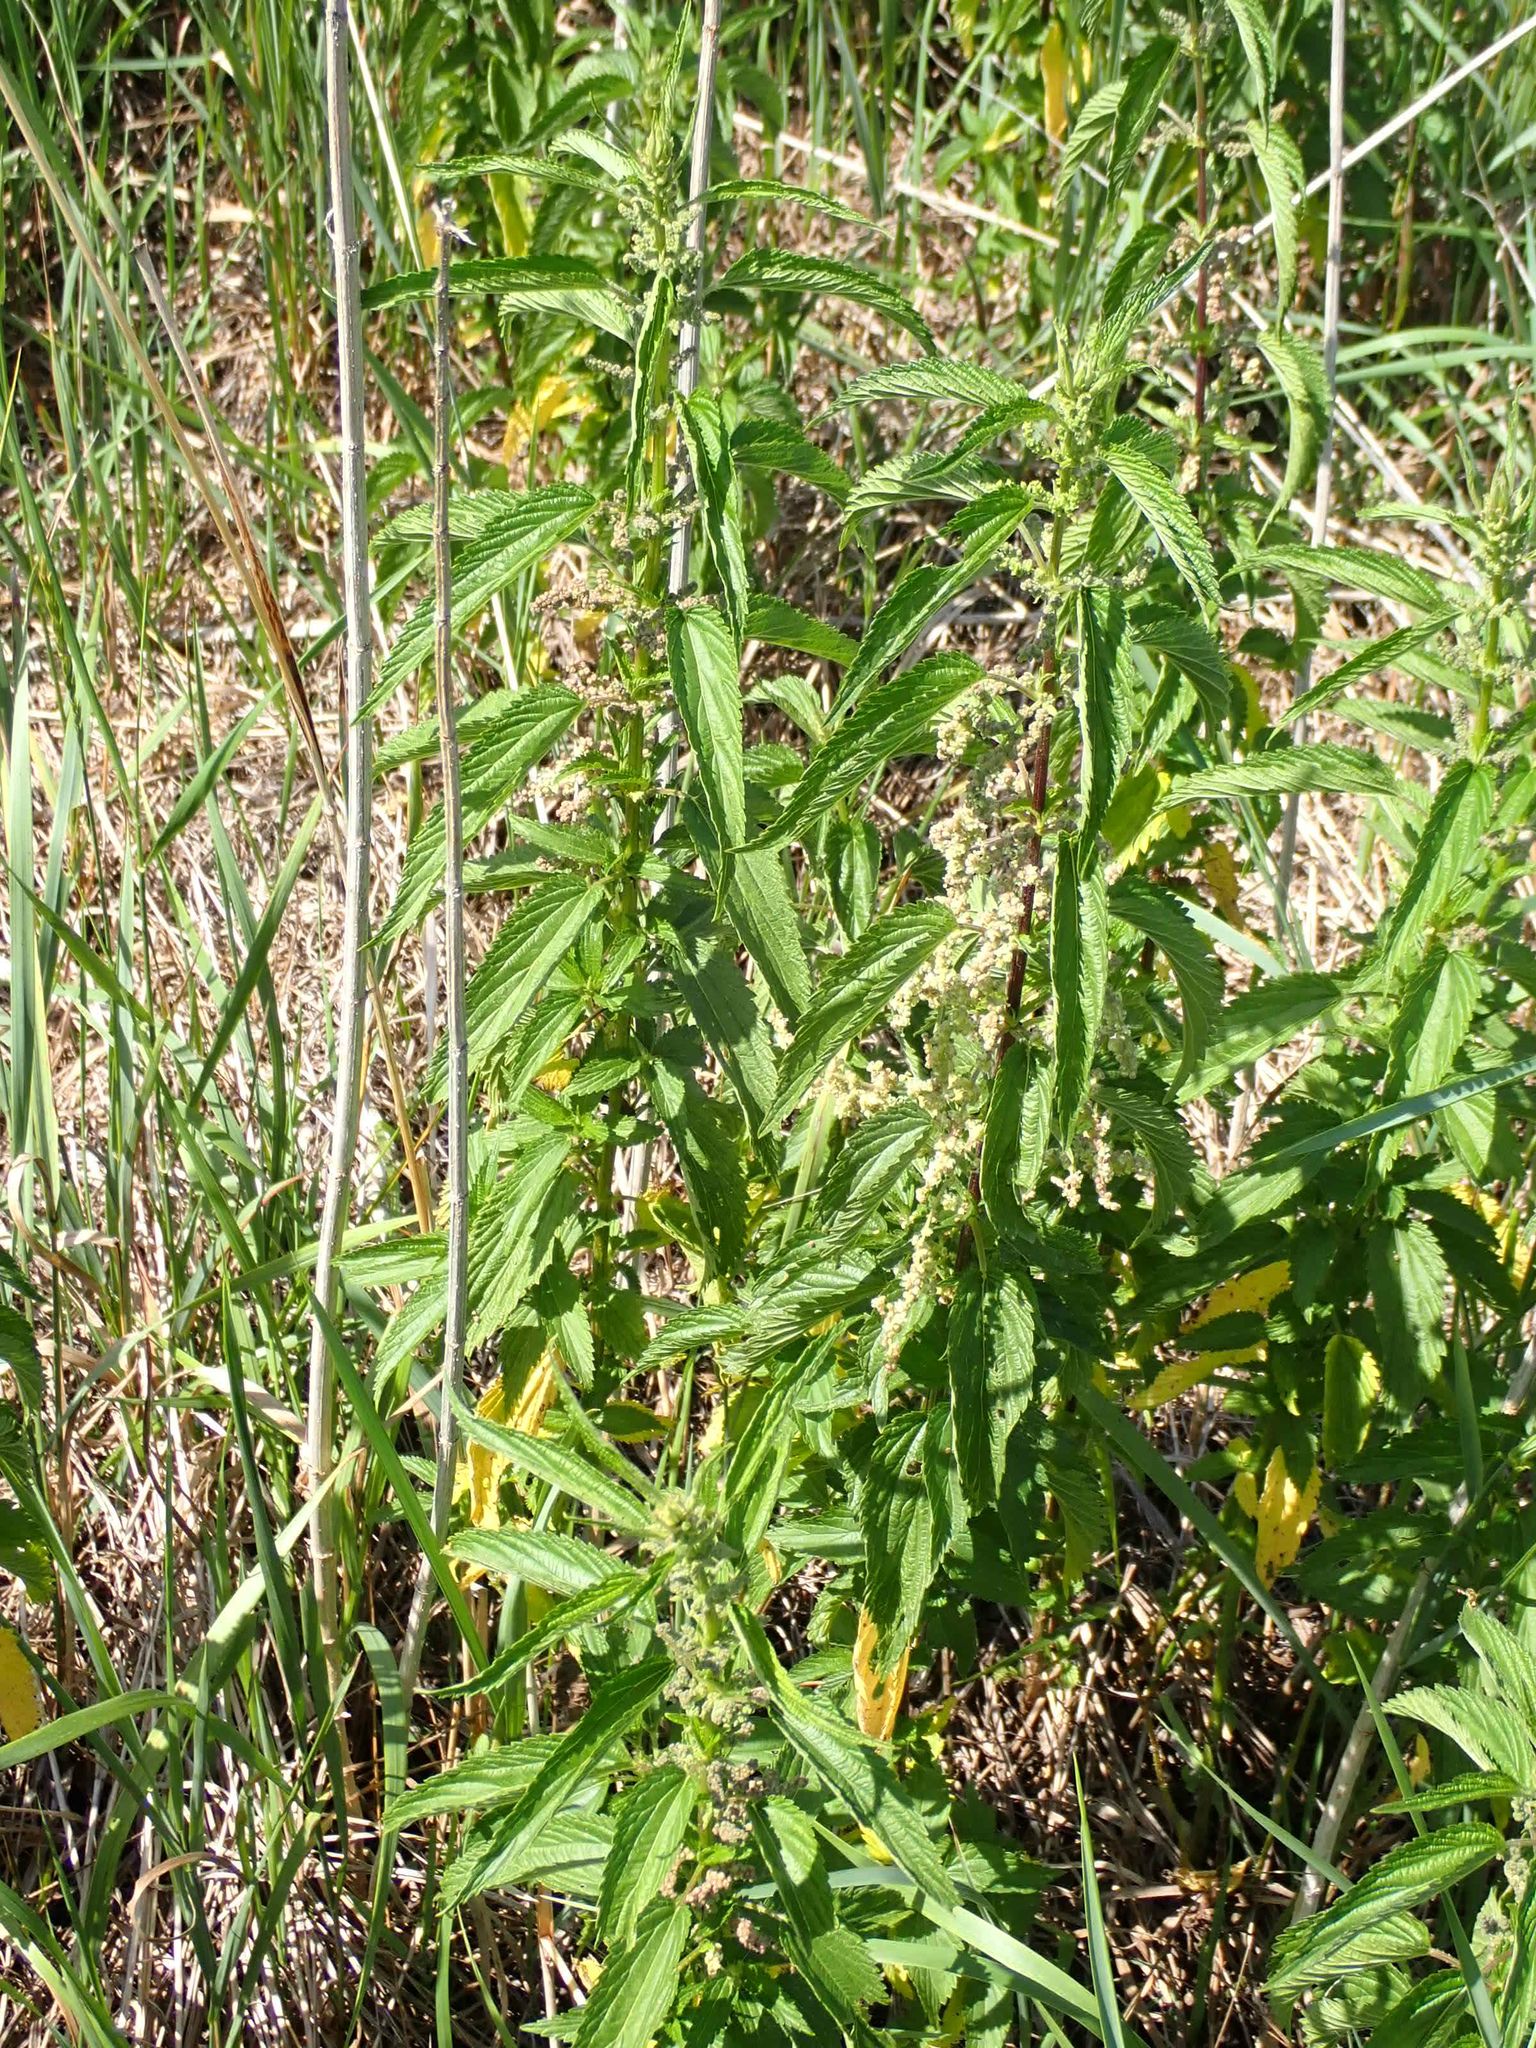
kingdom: Plantae
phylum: Tracheophyta
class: Magnoliopsida
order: Rosales
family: Urticaceae
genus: Urtica
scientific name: Urtica gracilis
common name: Slender stinging nettle
